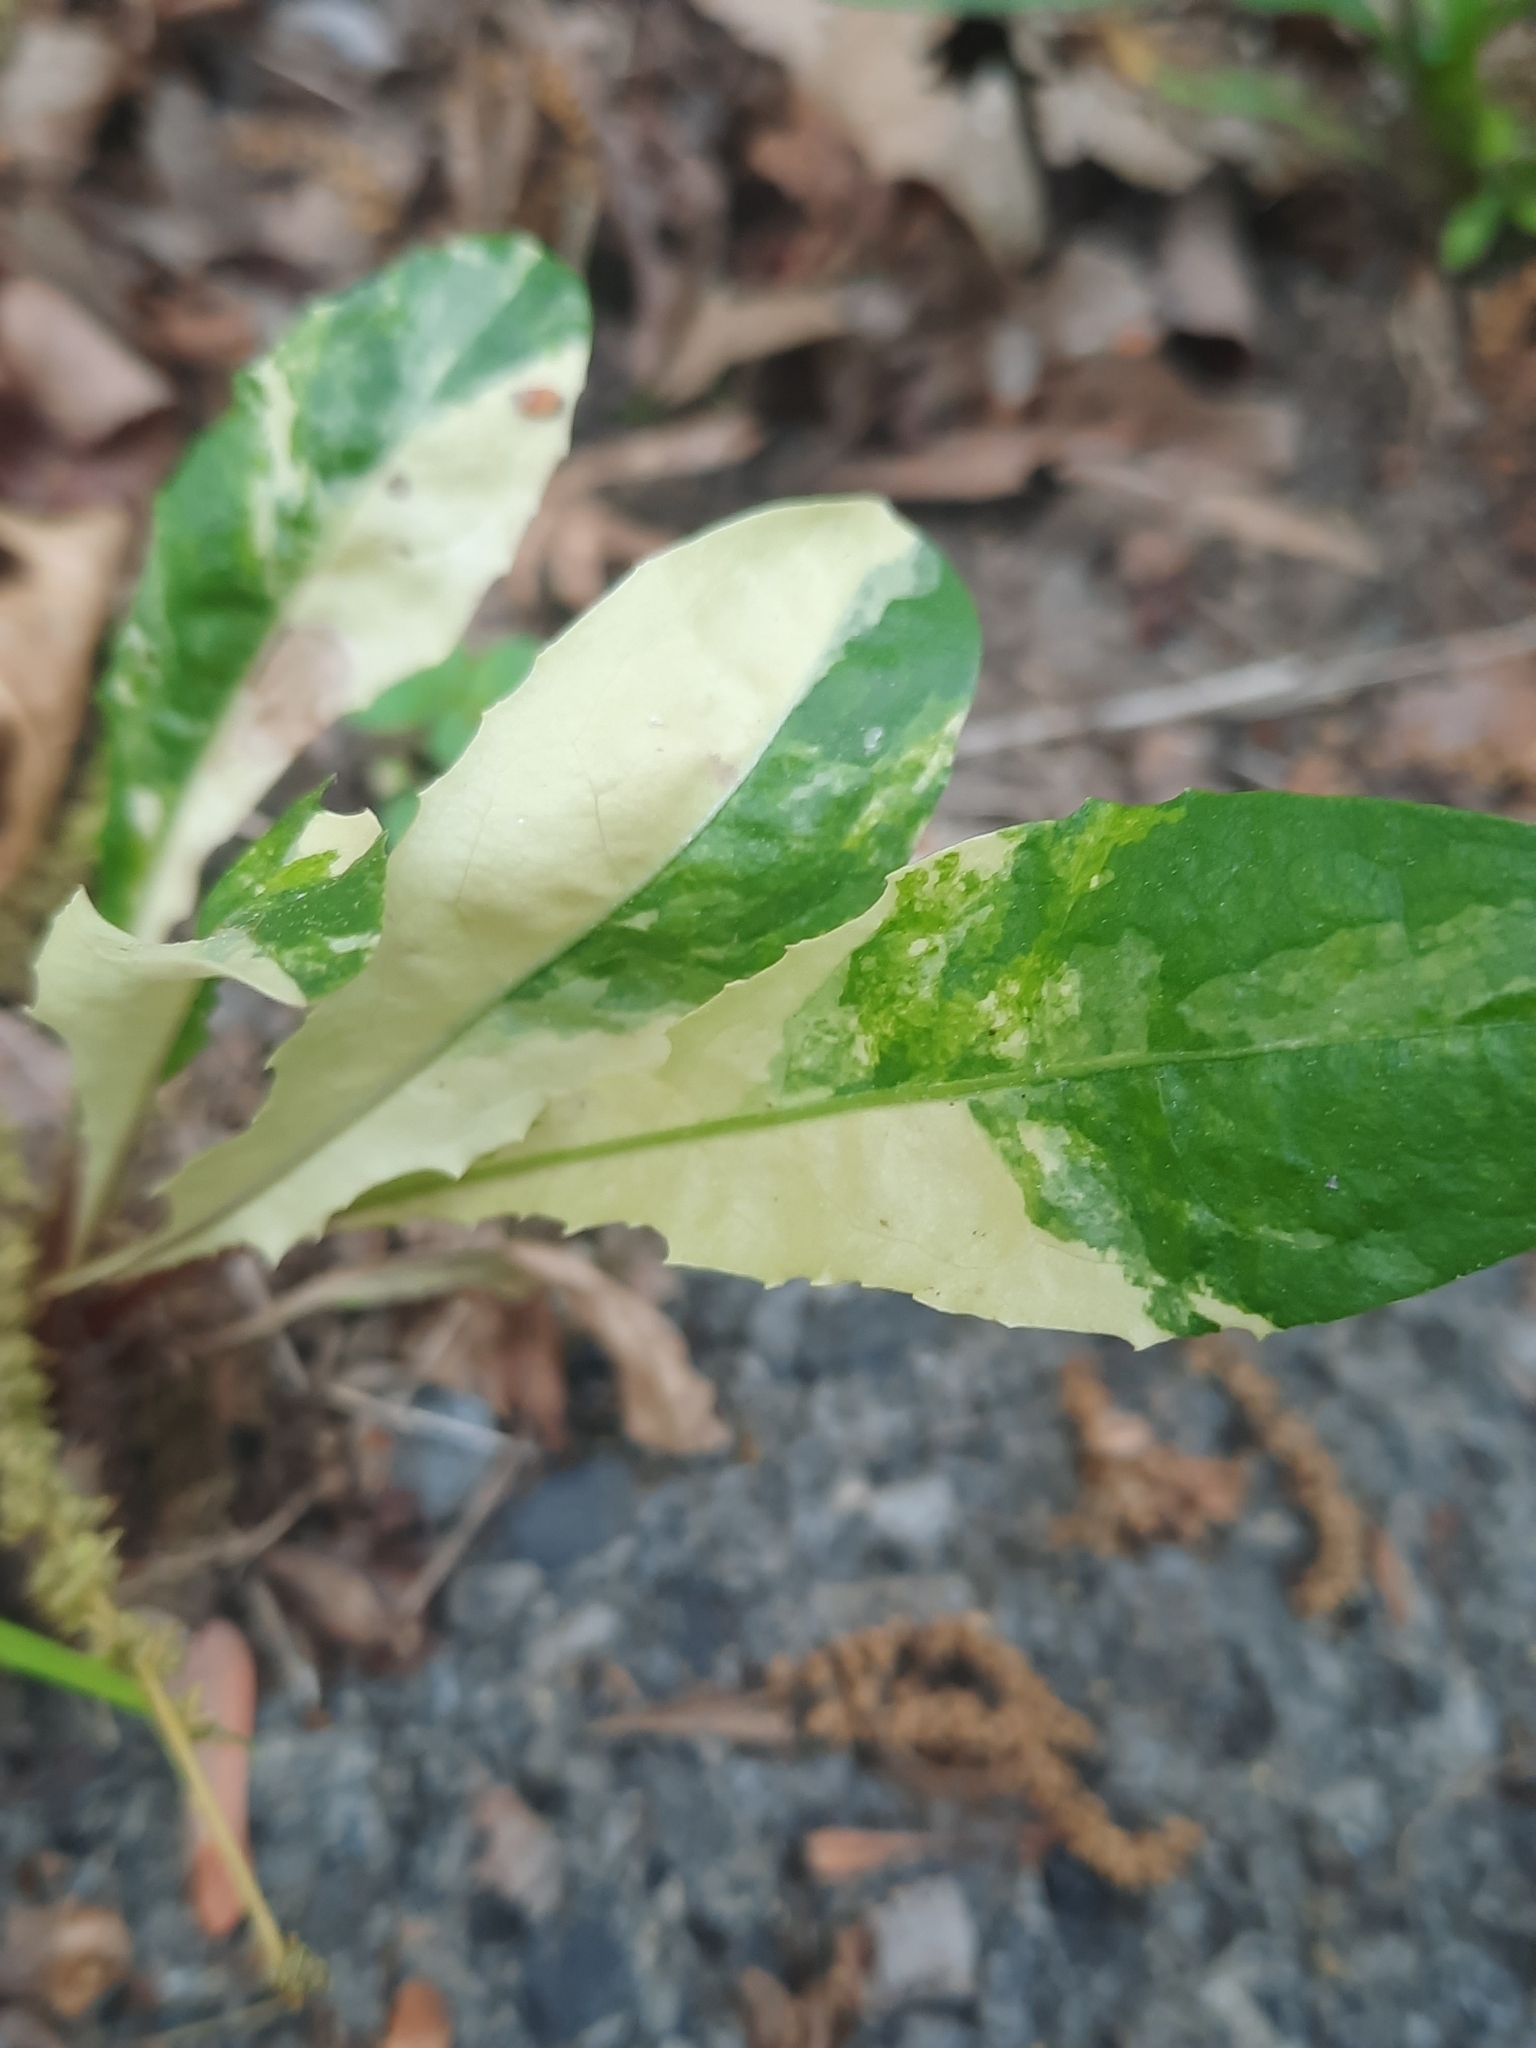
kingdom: Bacteria
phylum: Proteobacteria
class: Gammaproteobacteria
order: Pseudomonadales
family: Pseudomonadaceae
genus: Pseudomonas
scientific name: Pseudomonas syringae
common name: Bacterial speck
